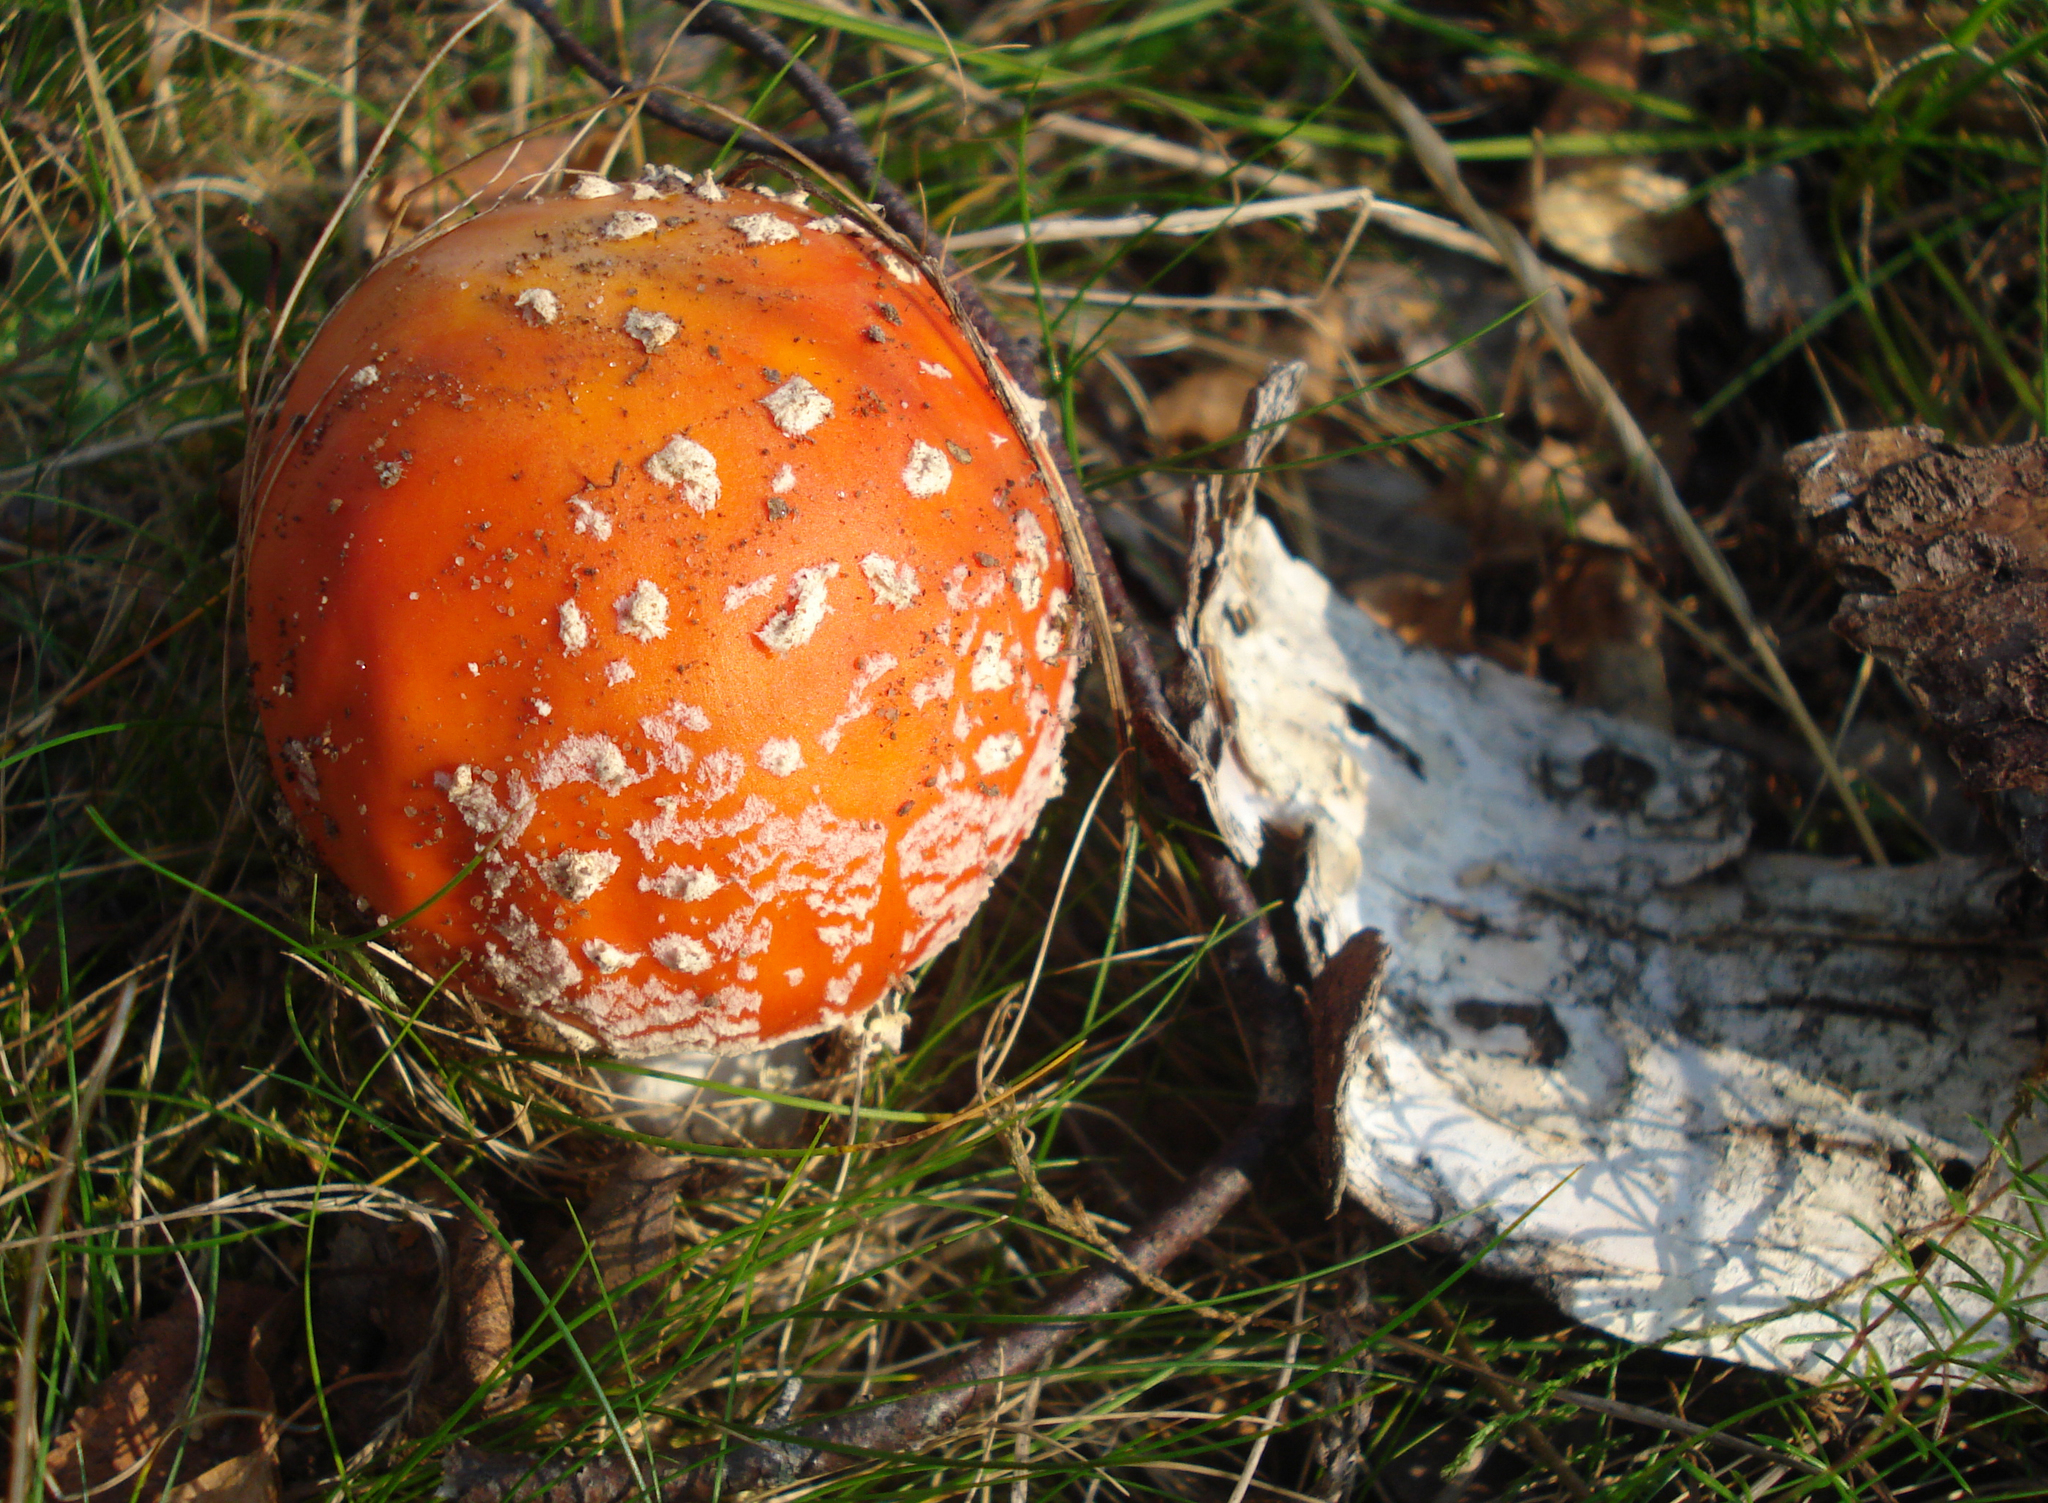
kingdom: Fungi
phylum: Basidiomycota
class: Agaricomycetes
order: Agaricales
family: Amanitaceae
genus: Amanita
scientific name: Amanita muscaria
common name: Fly agaric
